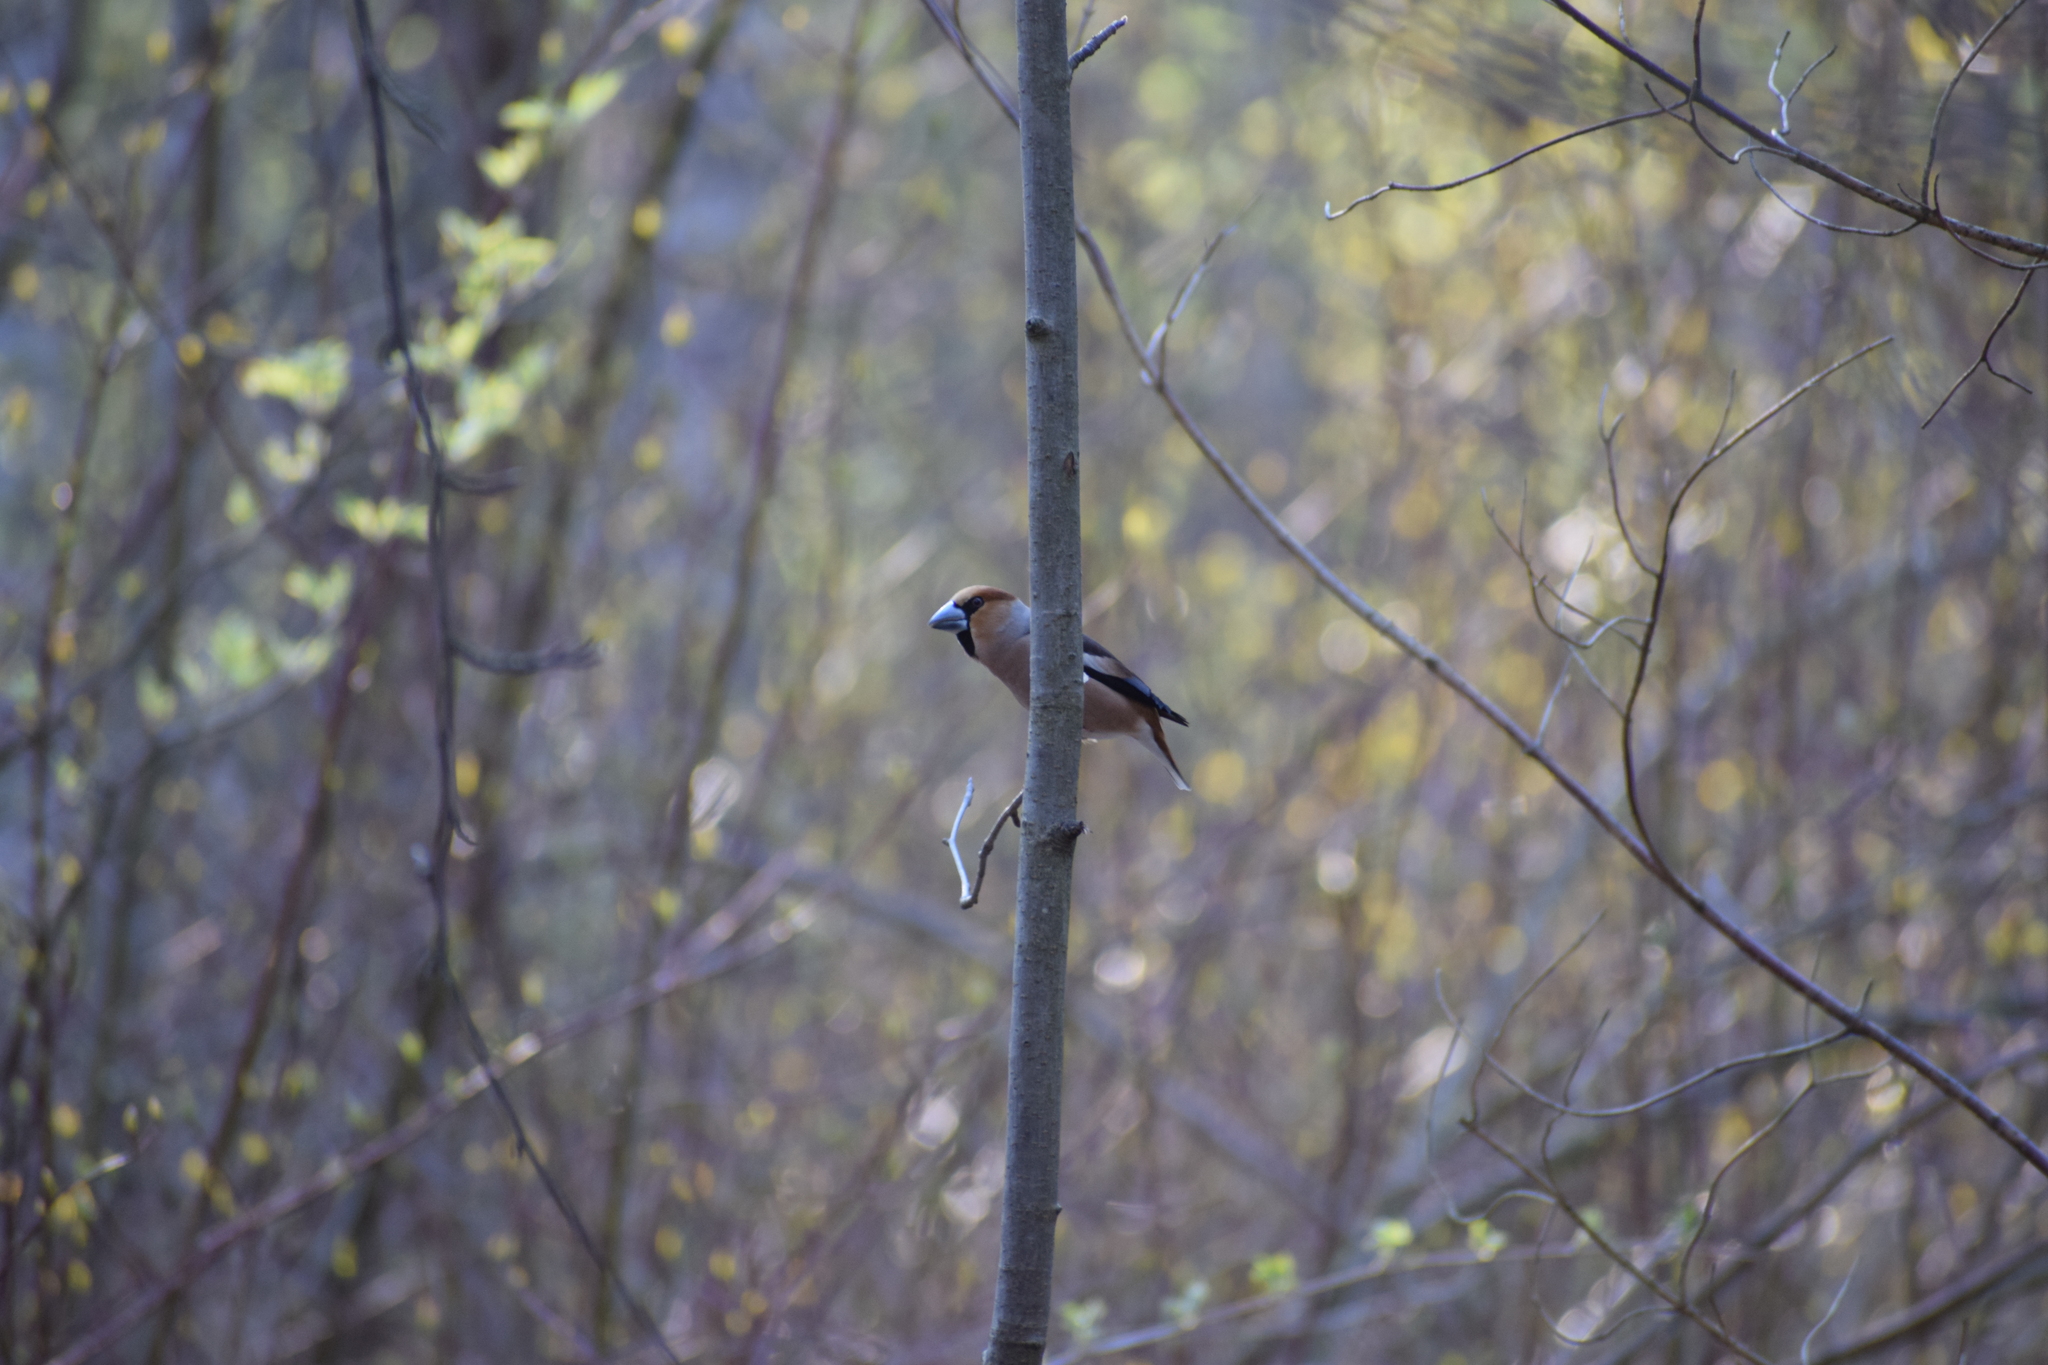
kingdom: Animalia
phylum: Chordata
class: Aves
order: Passeriformes
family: Fringillidae
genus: Coccothraustes
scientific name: Coccothraustes coccothraustes
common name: Hawfinch
